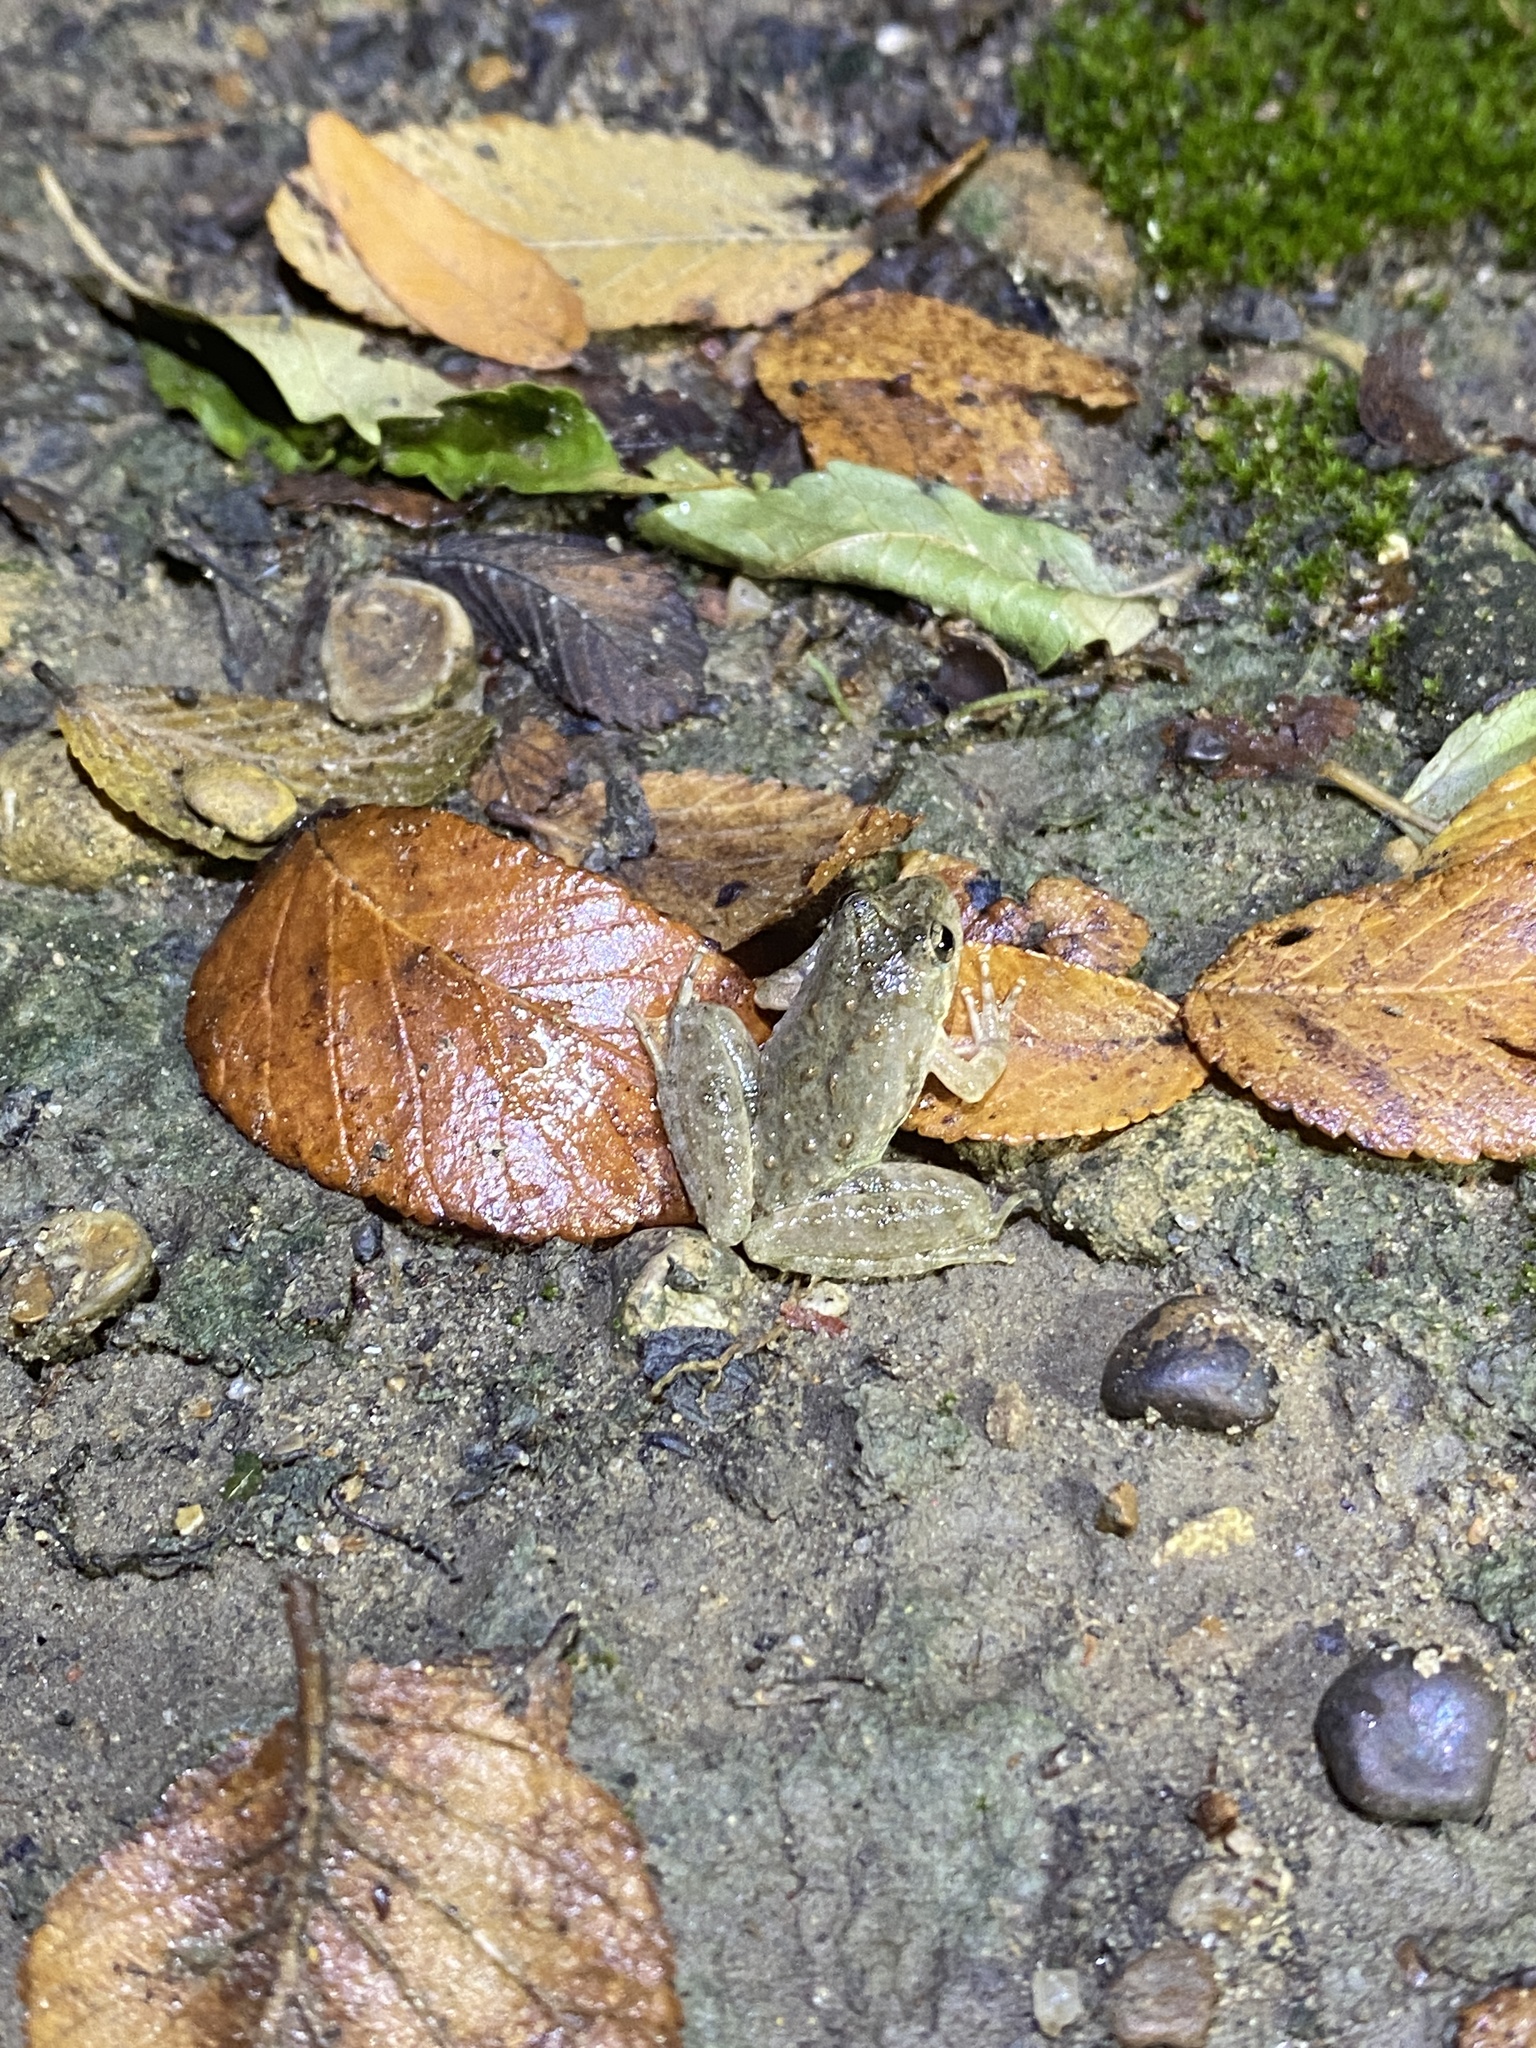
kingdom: Animalia
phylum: Chordata
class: Amphibia
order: Anura
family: Hylidae
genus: Acris
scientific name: Acris blanchardi
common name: Blanchard's cricket frog
